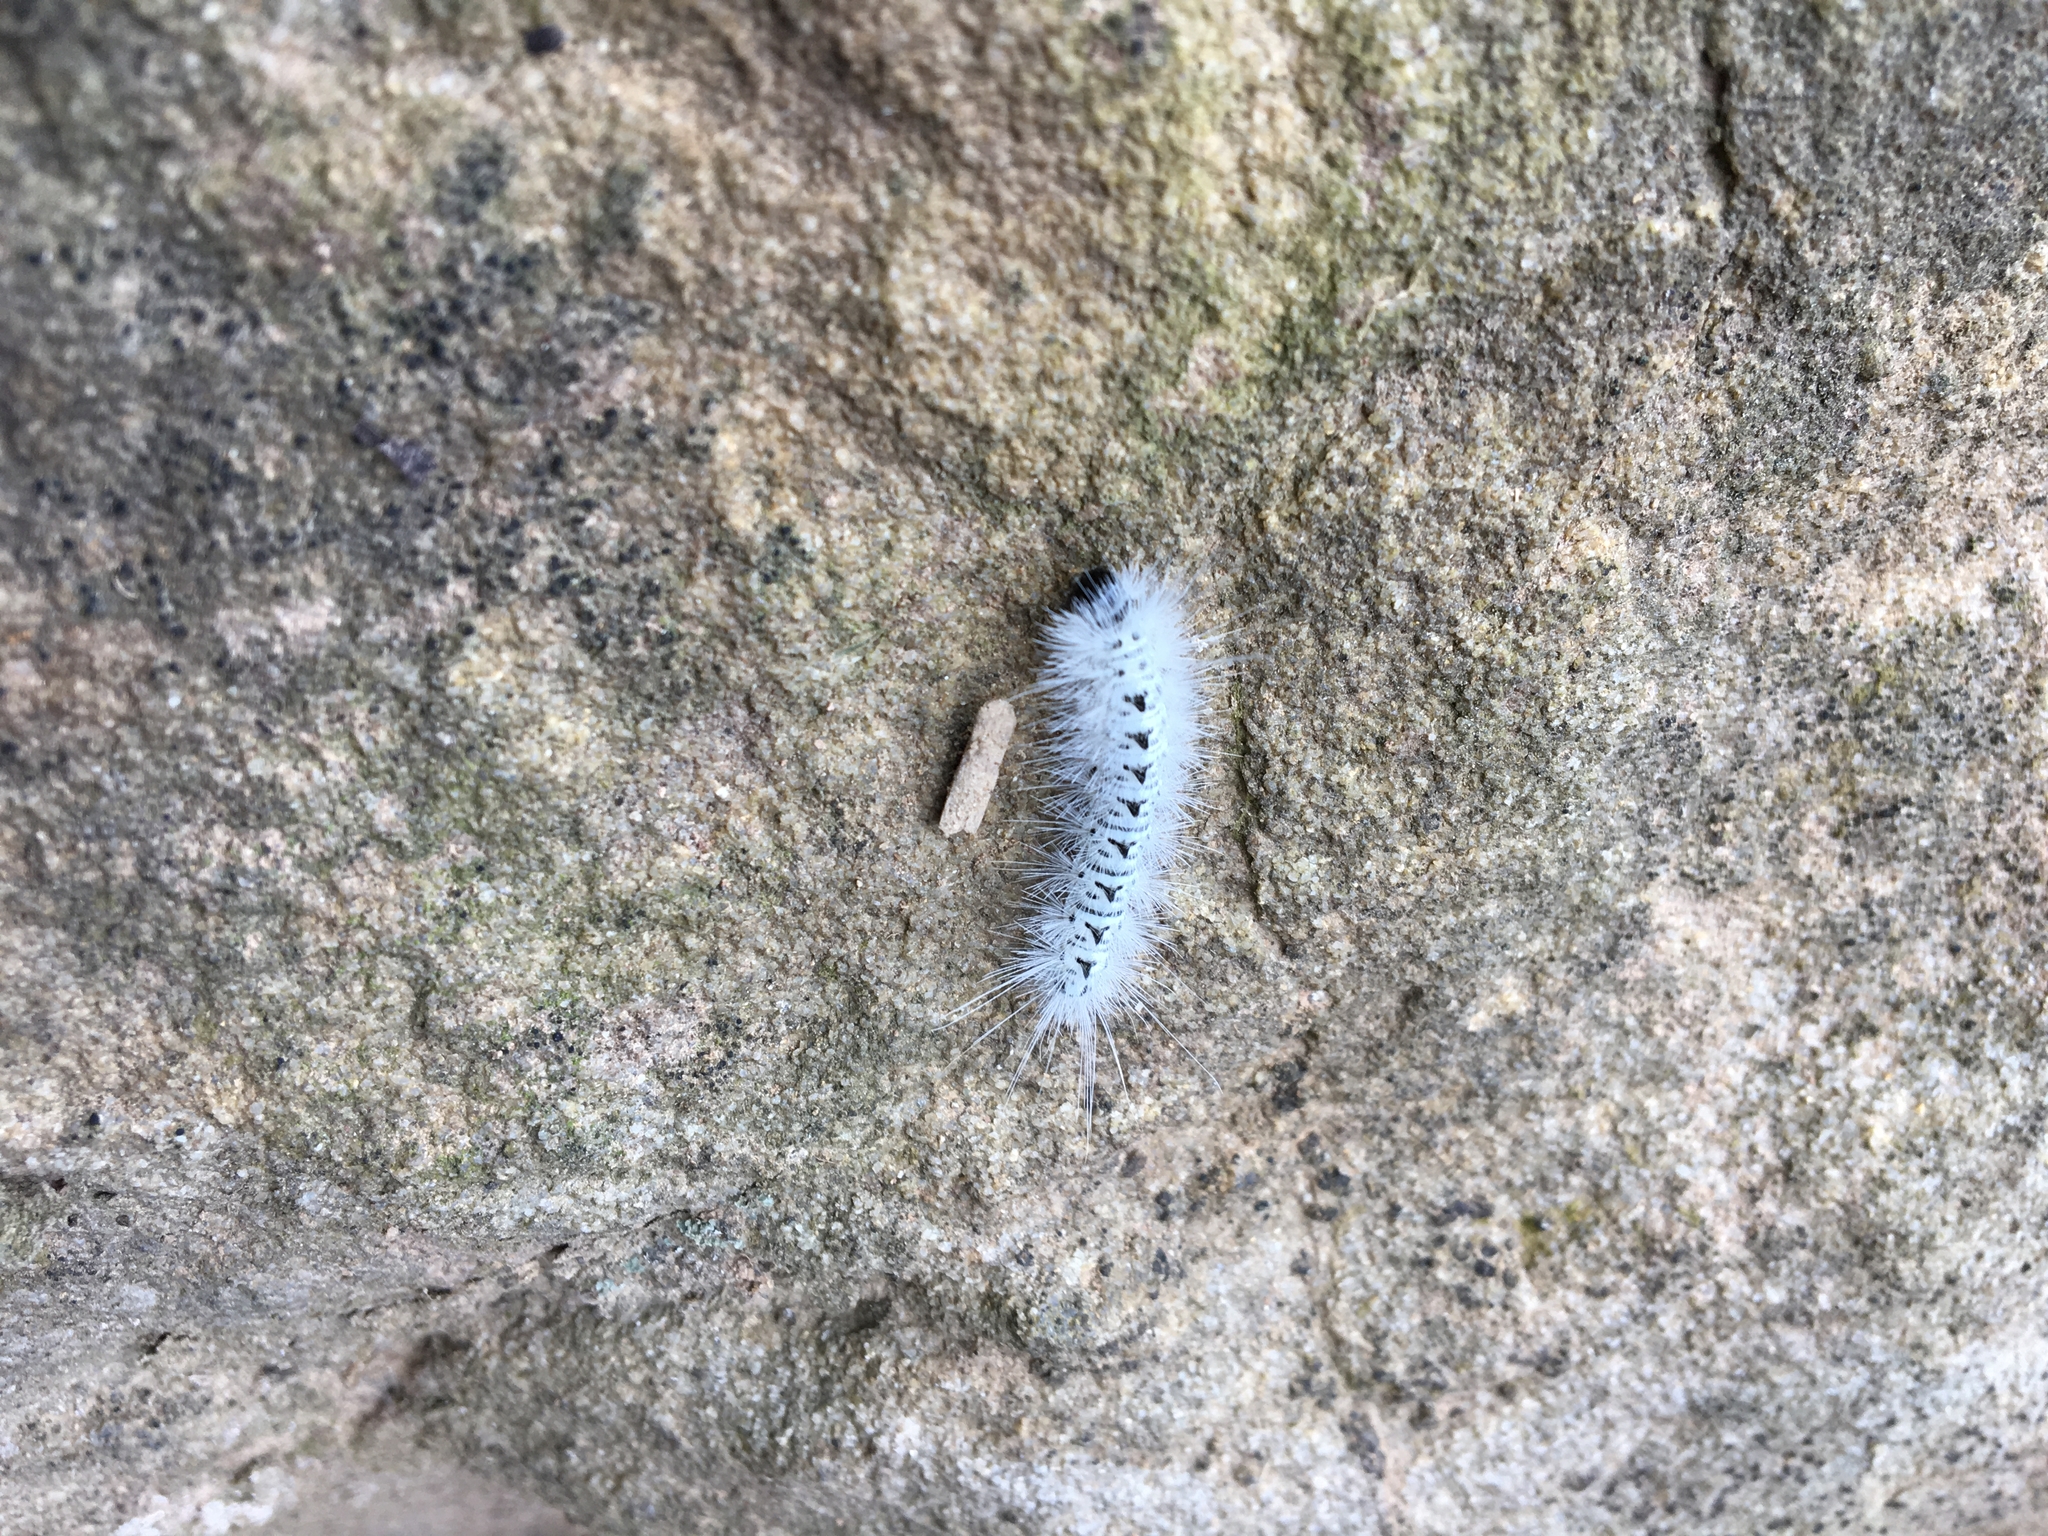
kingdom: Animalia
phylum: Arthropoda
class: Insecta
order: Lepidoptera
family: Erebidae
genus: Lophocampa
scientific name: Lophocampa caryae
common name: Hickory tussock moth
